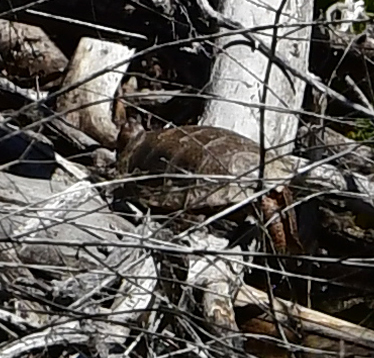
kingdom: Animalia
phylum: Chordata
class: Testudines
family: Emydidae
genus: Actinemys
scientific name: Actinemys marmorata
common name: Western pond turtle
